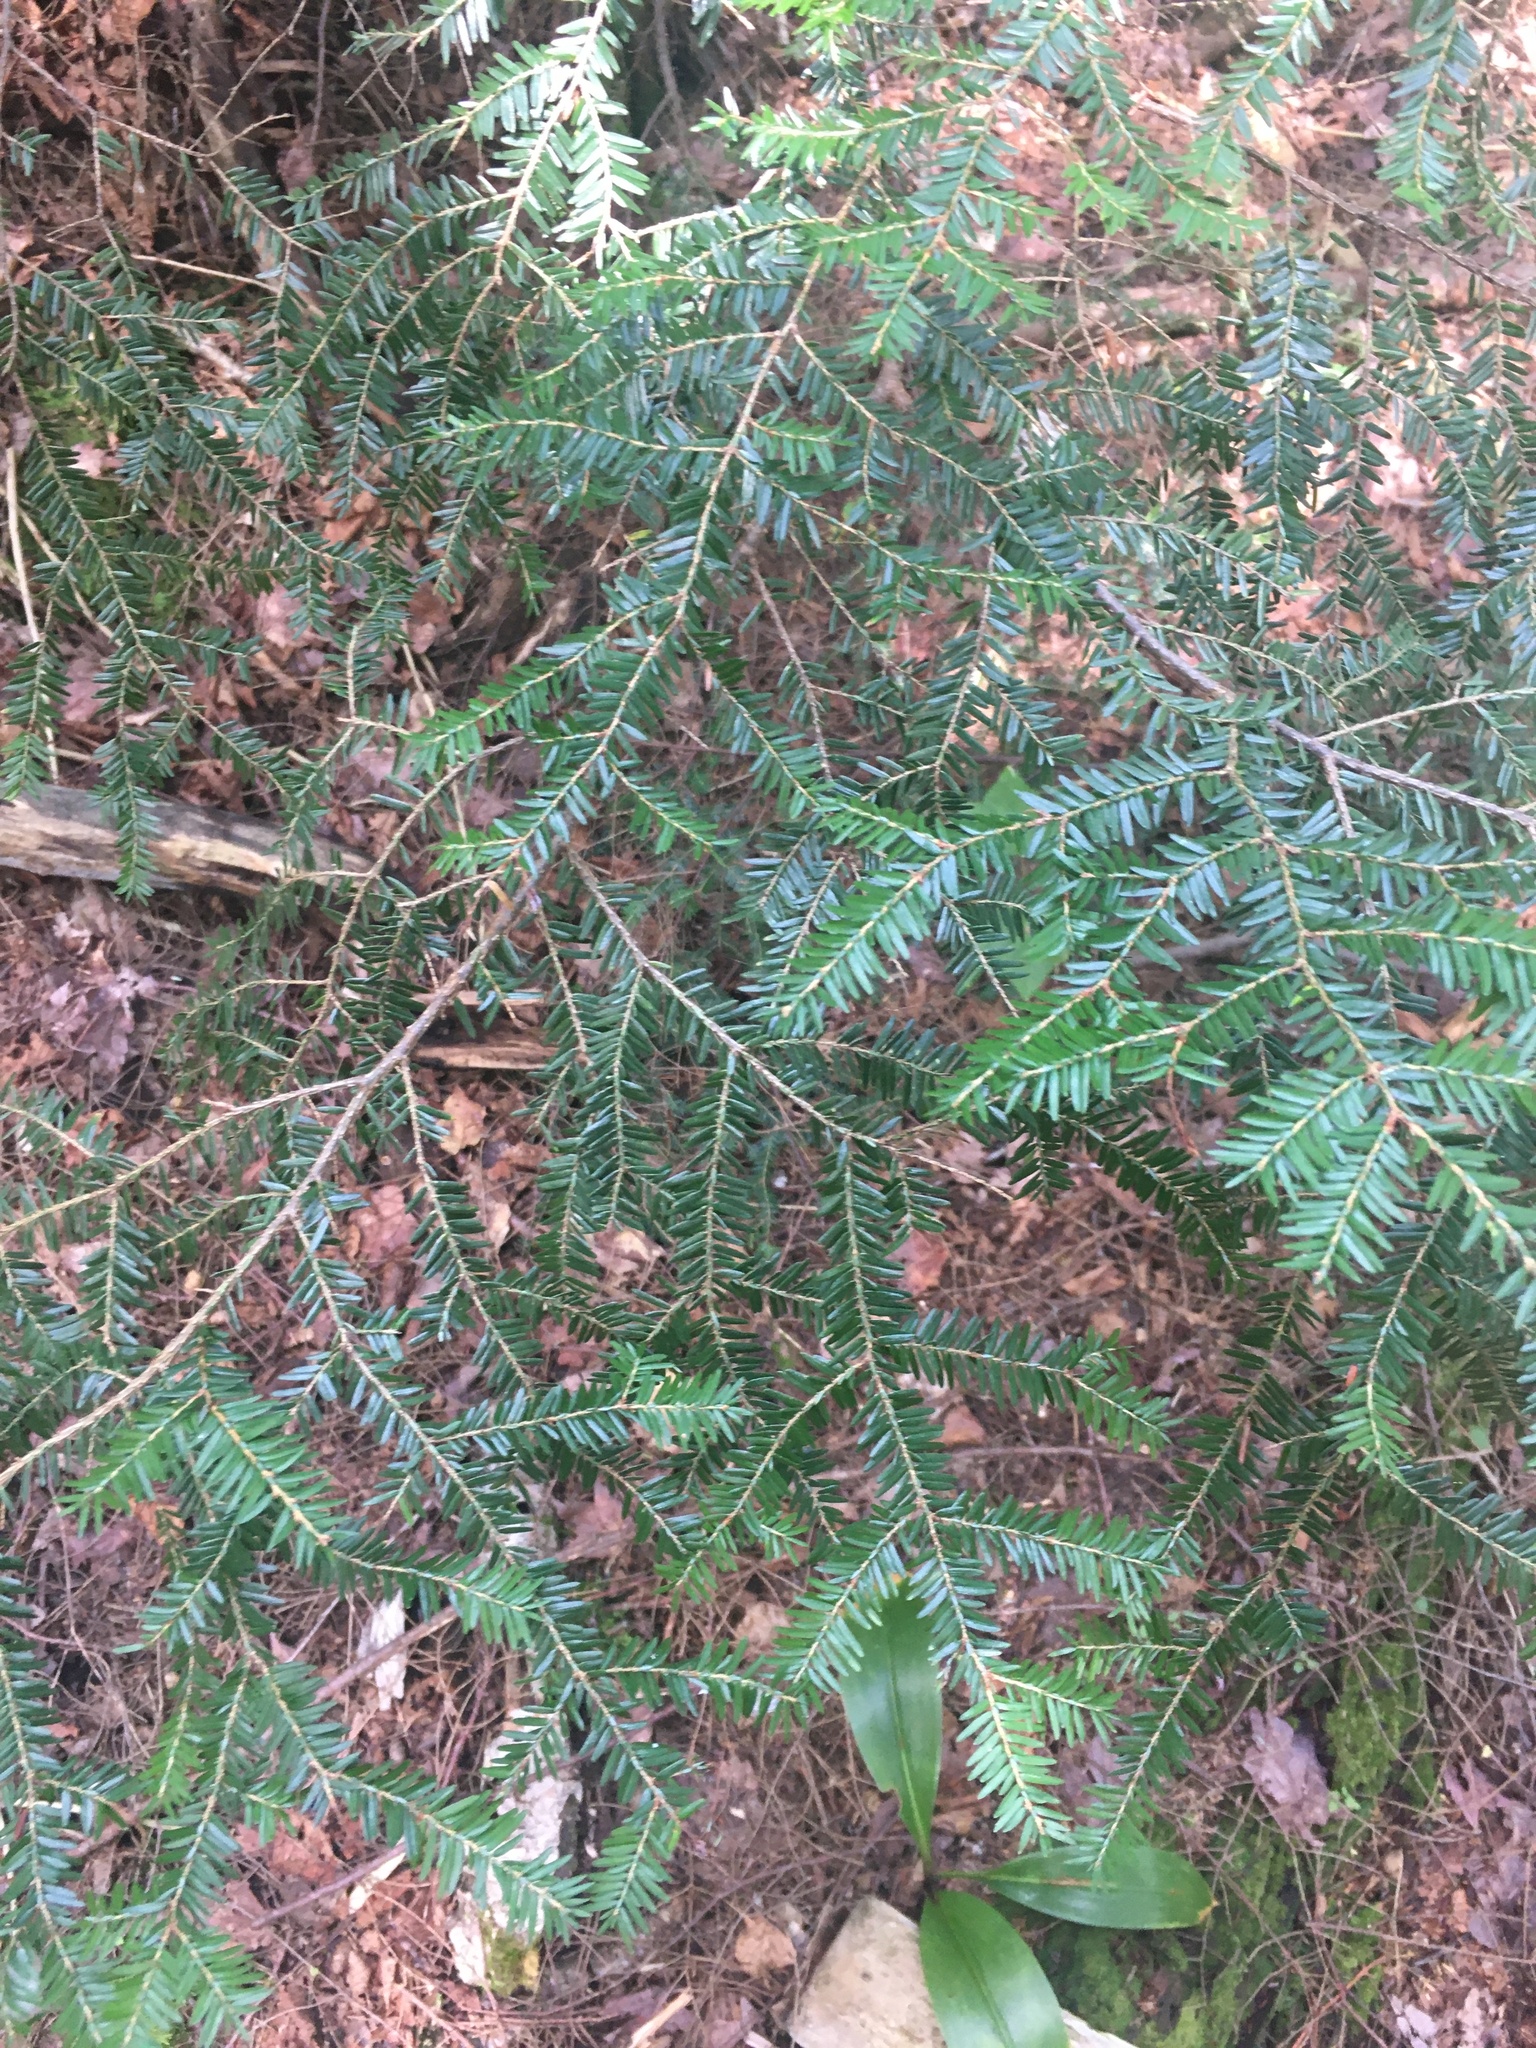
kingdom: Plantae
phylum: Tracheophyta
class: Pinopsida
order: Pinales
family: Pinaceae
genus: Tsuga
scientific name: Tsuga canadensis
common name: Eastern hemlock
